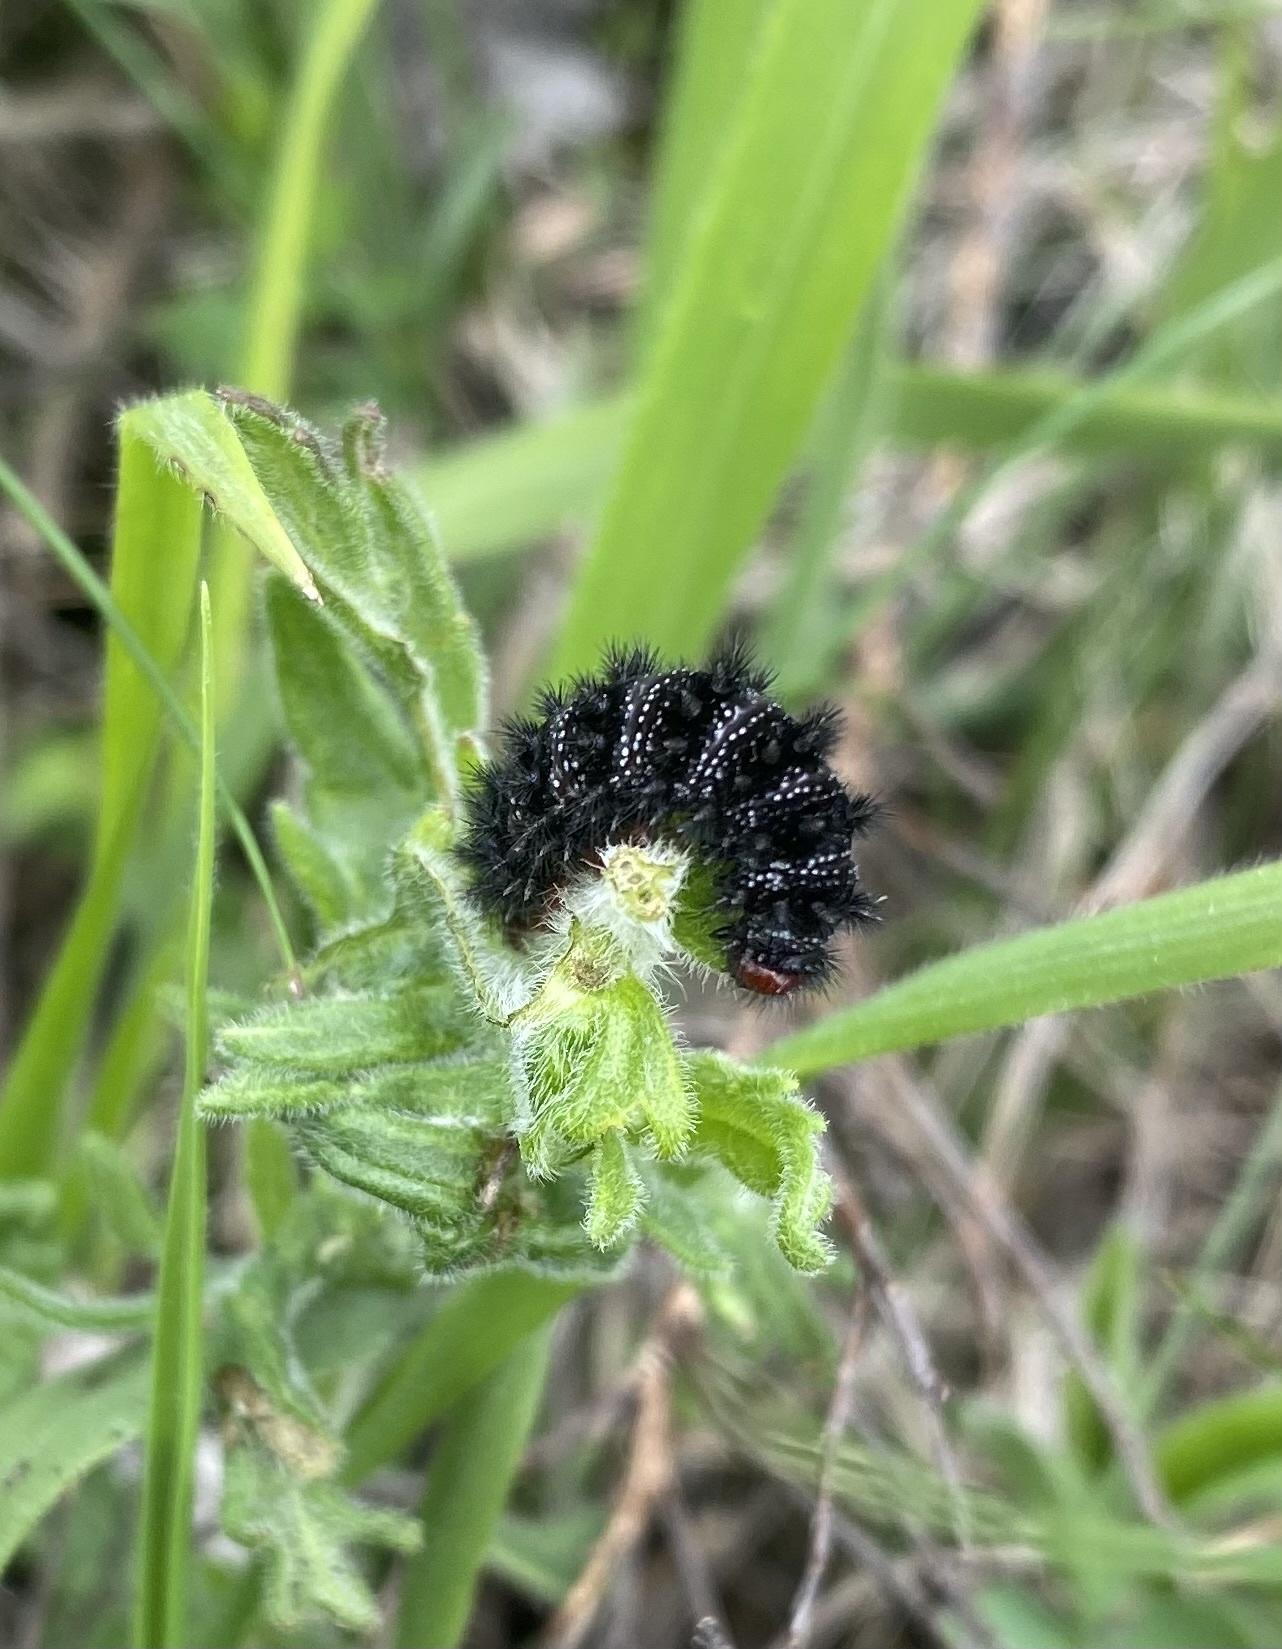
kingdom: Animalia
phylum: Arthropoda
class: Insecta
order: Lepidoptera
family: Nymphalidae
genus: Melitaea
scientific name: Melitaea cinxia
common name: Glanville fritillary
